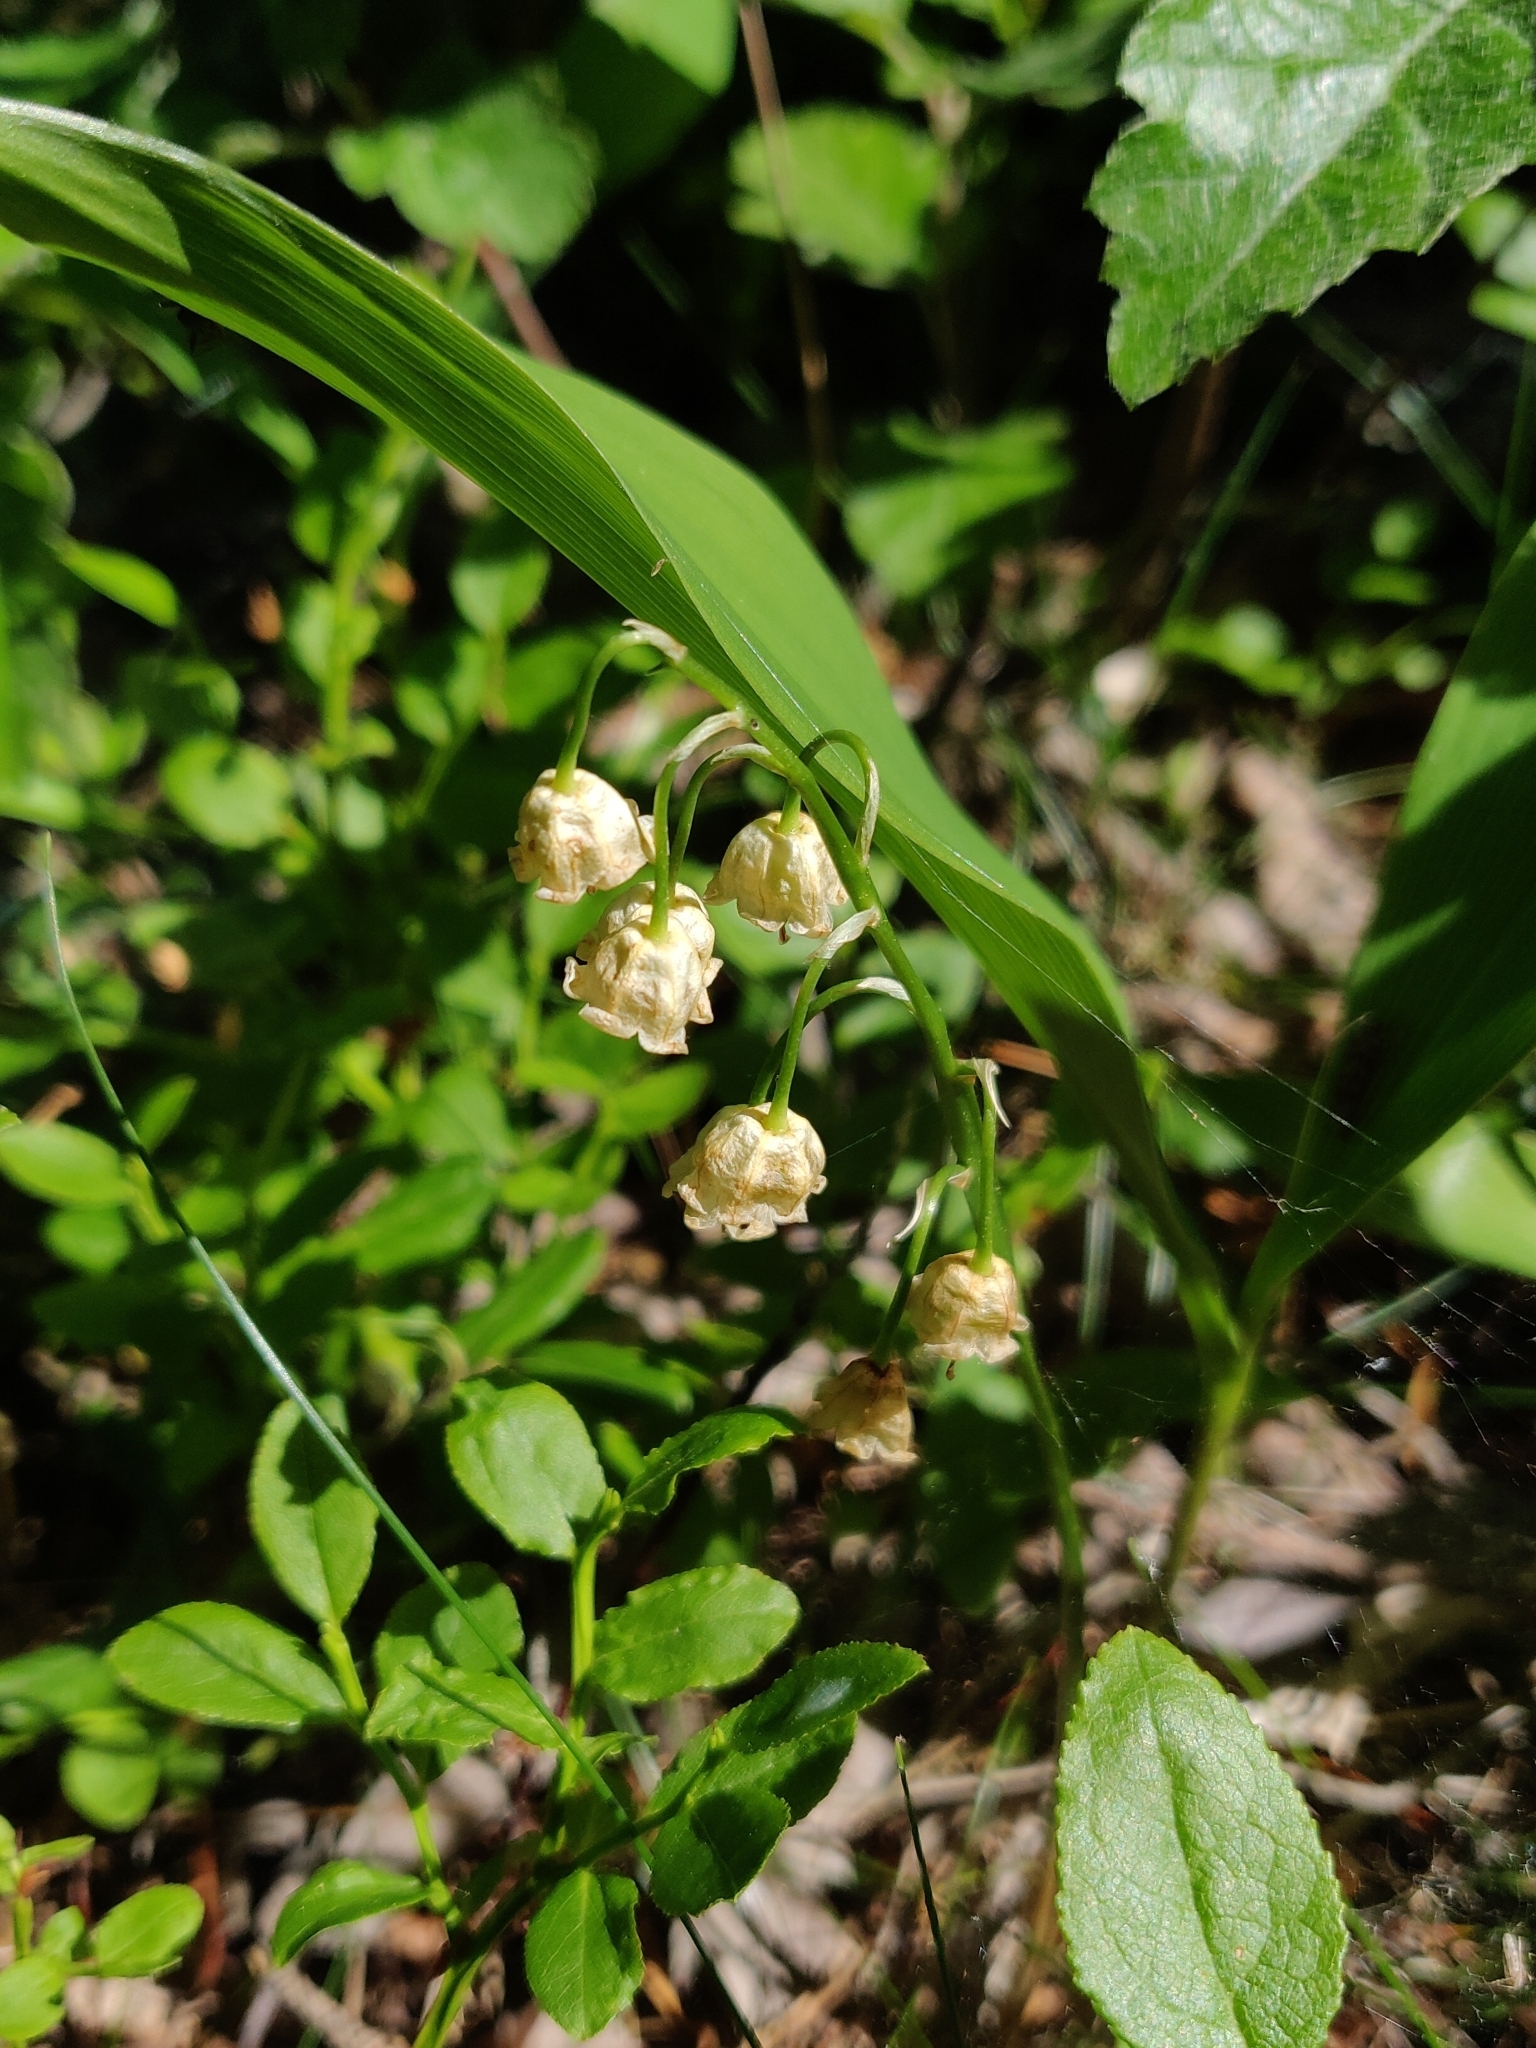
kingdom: Plantae
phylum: Tracheophyta
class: Liliopsida
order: Asparagales
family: Asparagaceae
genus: Convallaria
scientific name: Convallaria majalis
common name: Lily-of-the-valley
